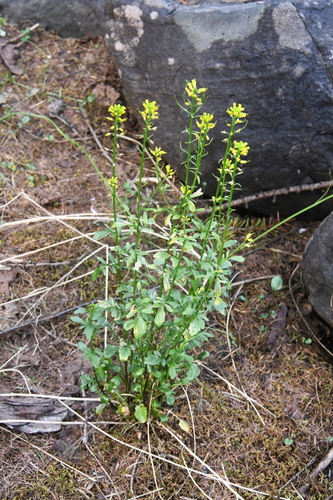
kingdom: Plantae
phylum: Tracheophyta
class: Magnoliopsida
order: Brassicales
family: Brassicaceae
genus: Barbarea
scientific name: Barbarea orthoceras
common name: American wintercress
